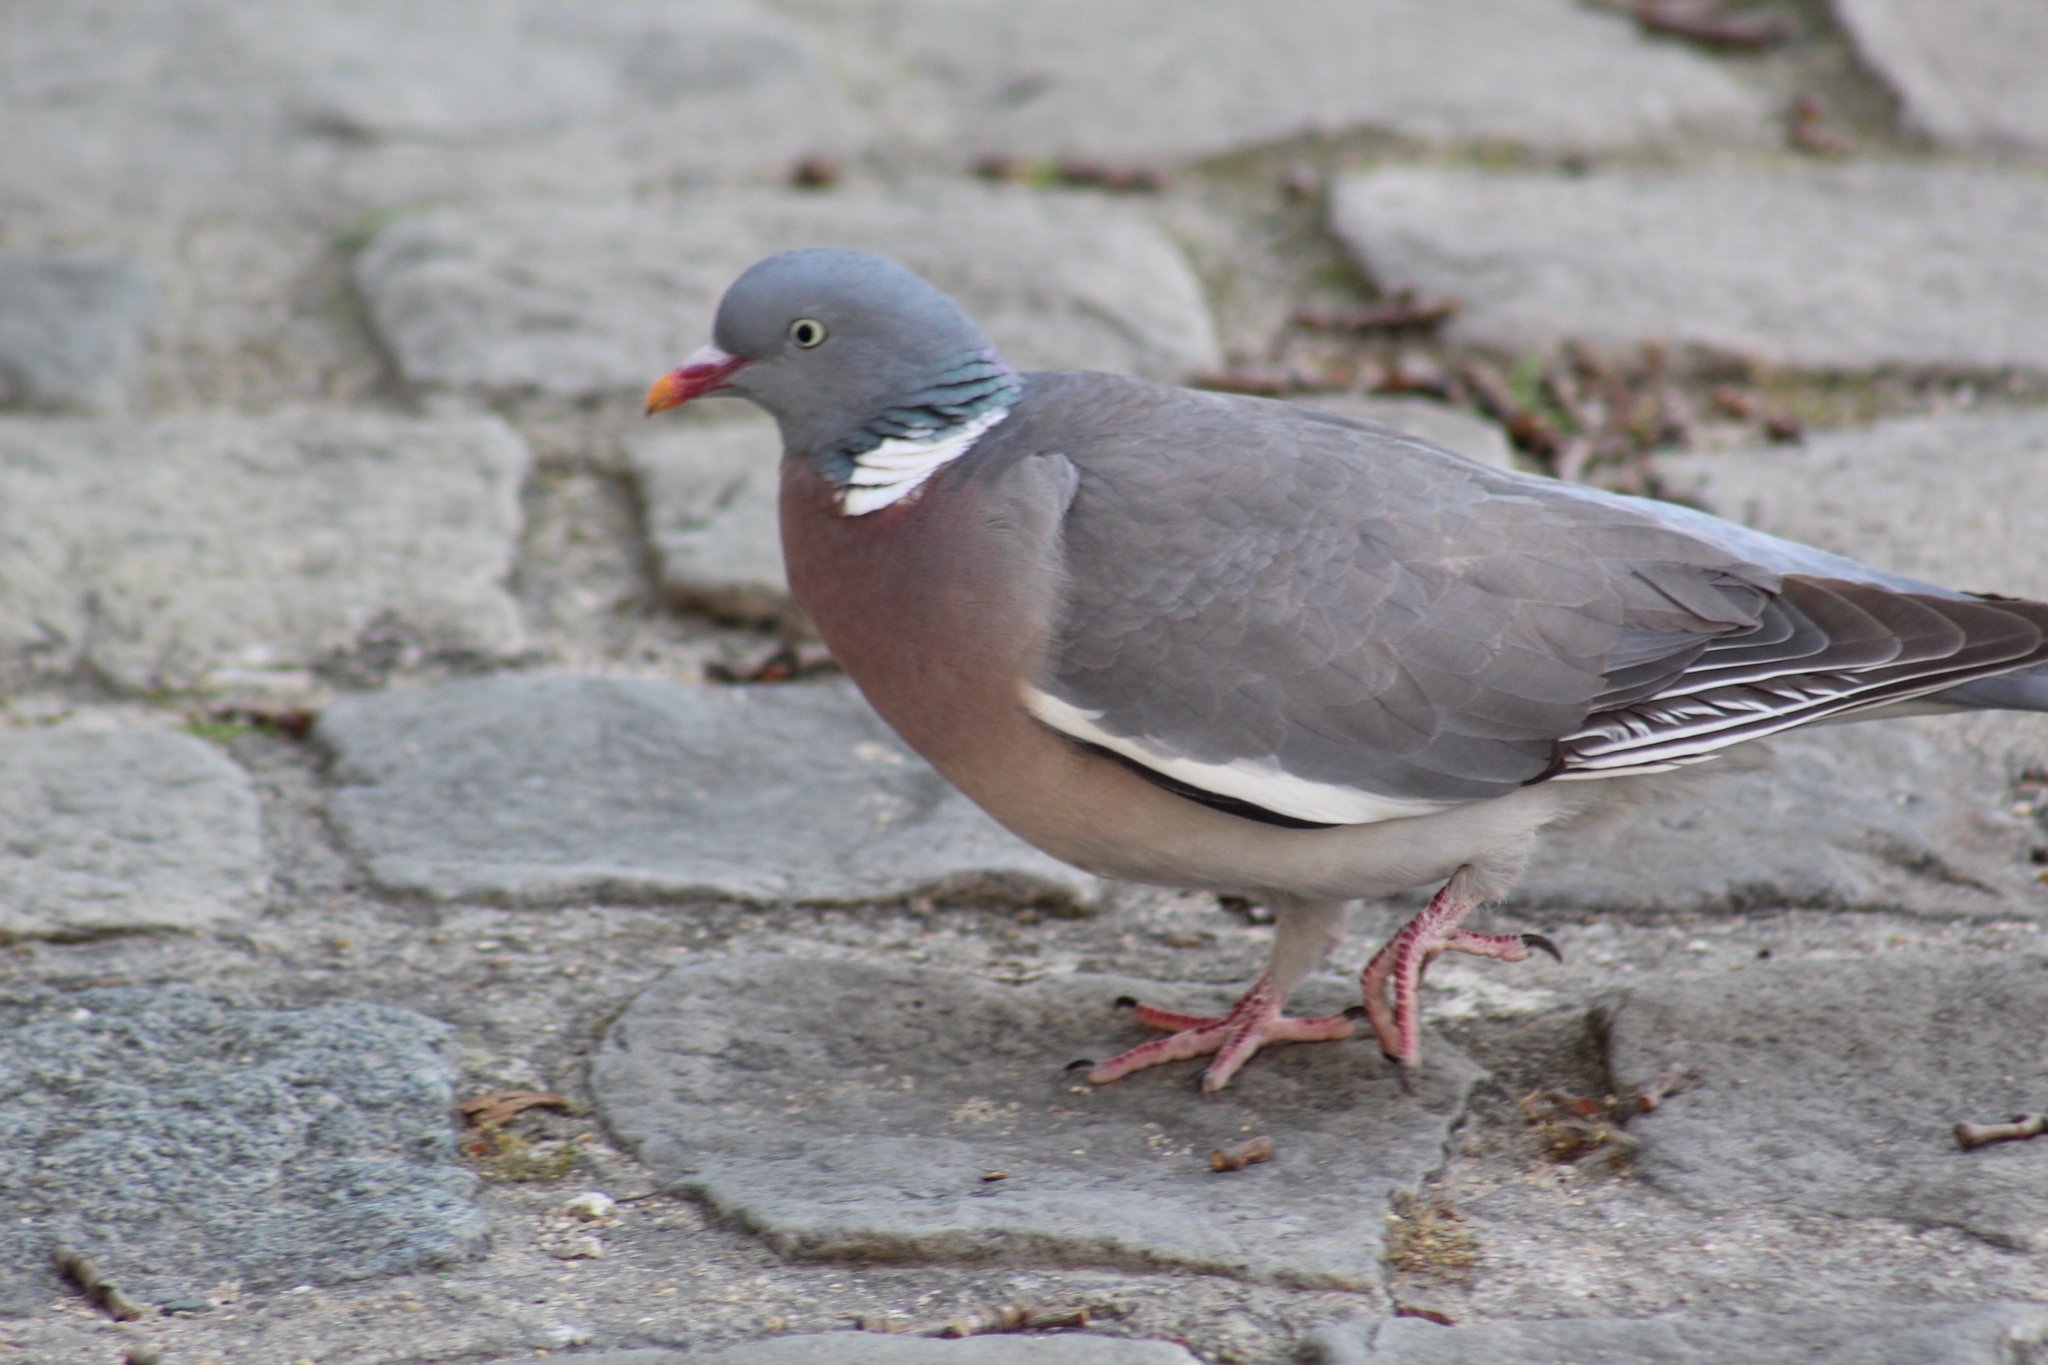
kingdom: Animalia
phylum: Chordata
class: Aves
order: Columbiformes
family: Columbidae
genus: Columba
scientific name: Columba palumbus
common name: Common wood pigeon
